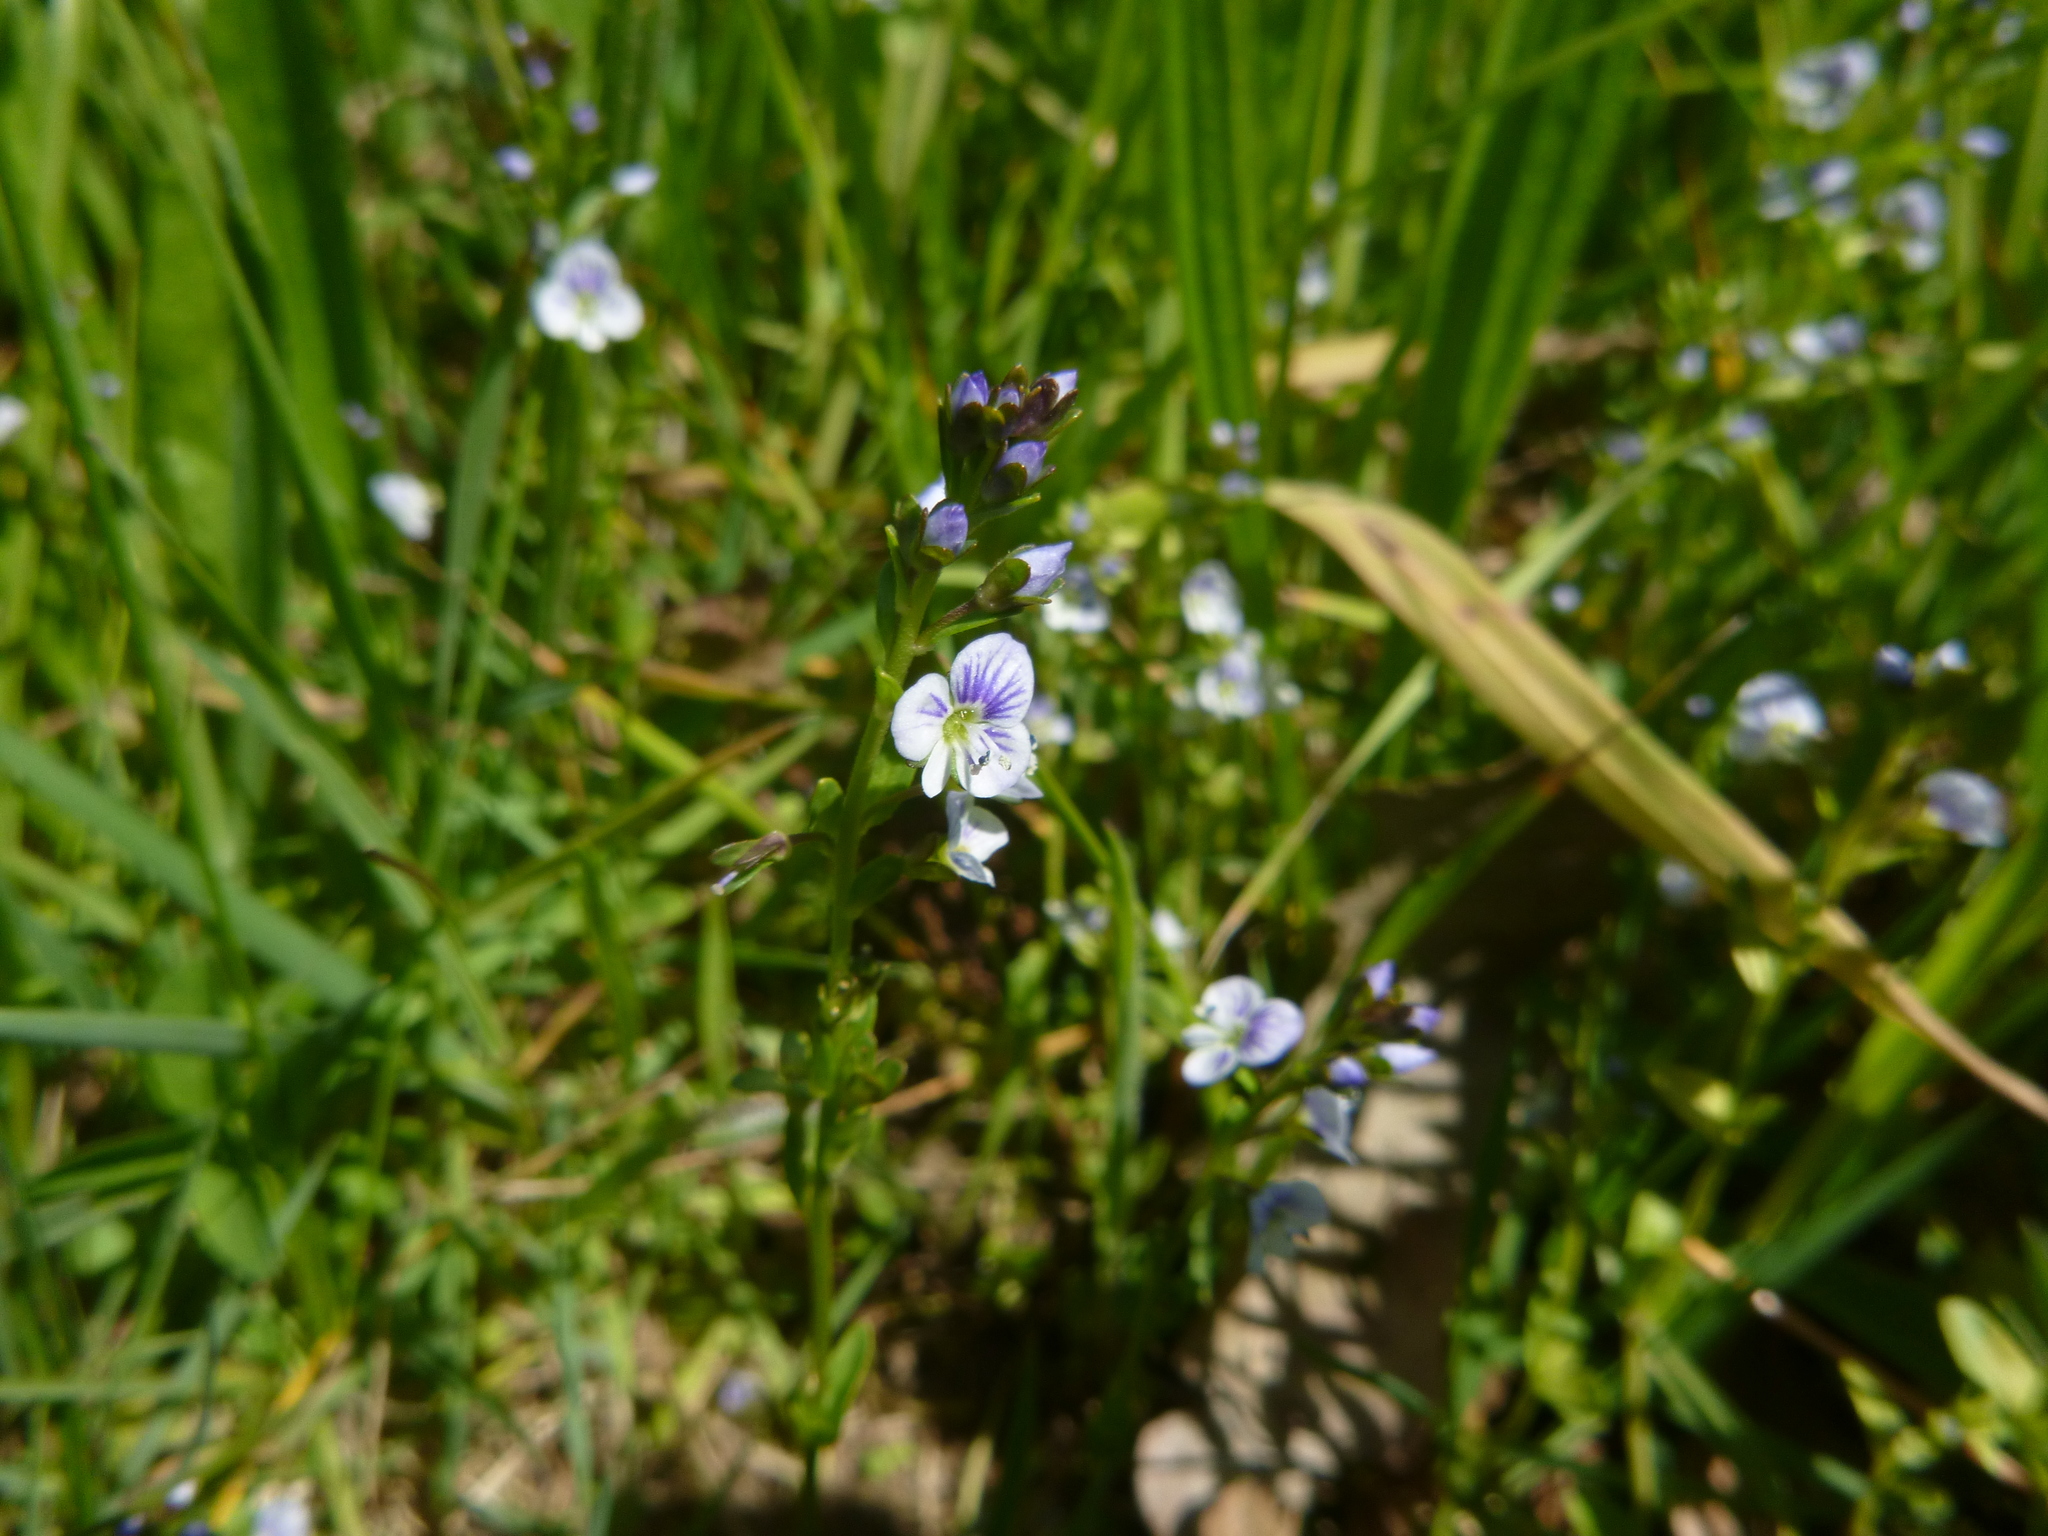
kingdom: Plantae
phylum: Tracheophyta
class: Magnoliopsida
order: Lamiales
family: Plantaginaceae
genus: Veronica
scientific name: Veronica serpyllifolia
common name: Thyme-leaved speedwell
